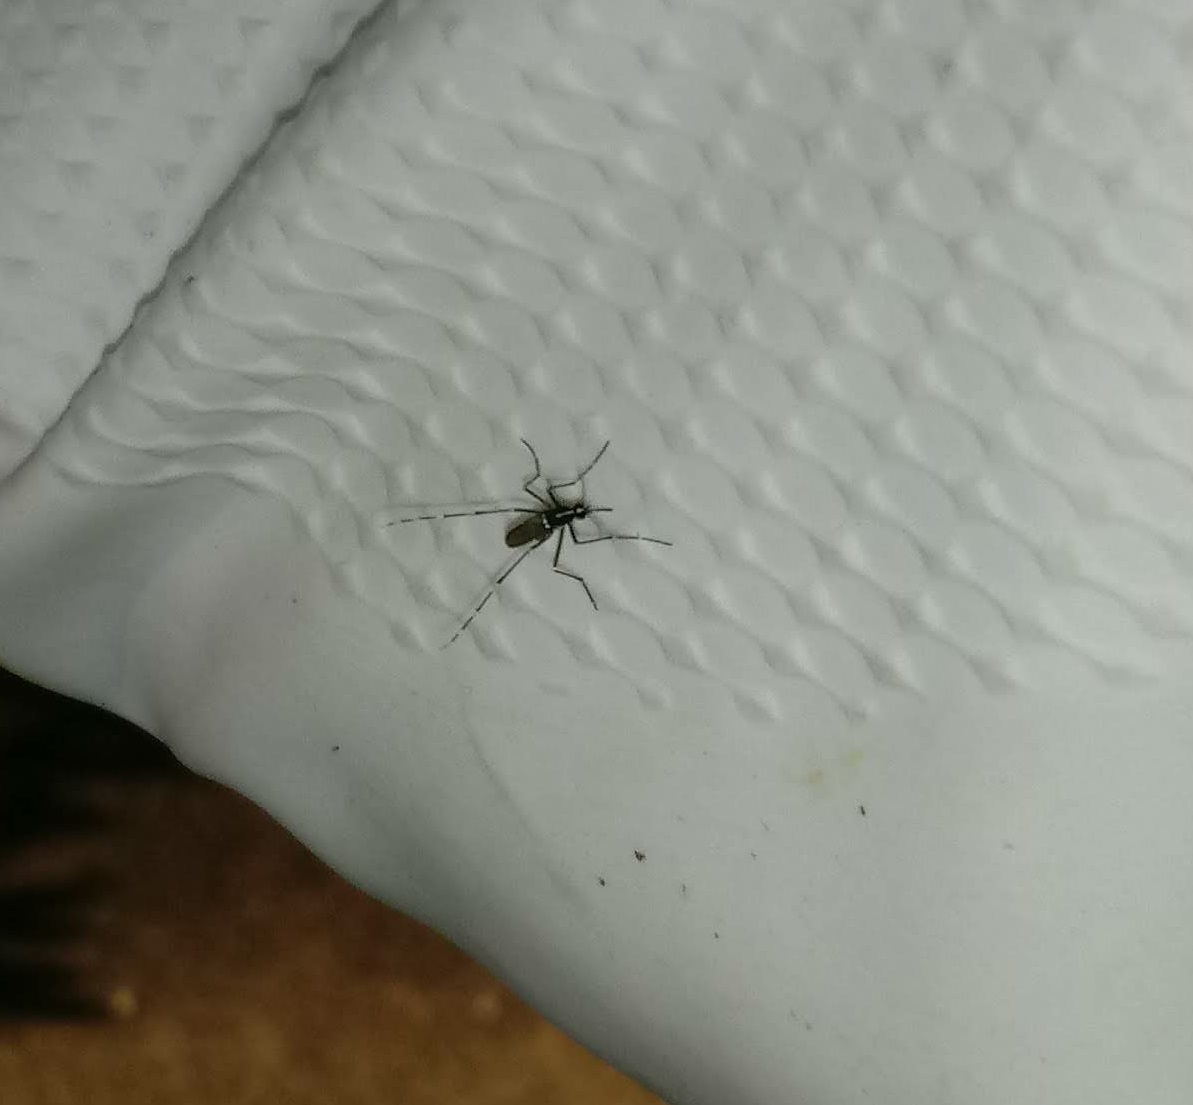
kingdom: Animalia
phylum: Arthropoda
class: Insecta
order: Diptera
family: Culicidae
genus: Aedes
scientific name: Aedes albopictus
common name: Tiger mosquito
